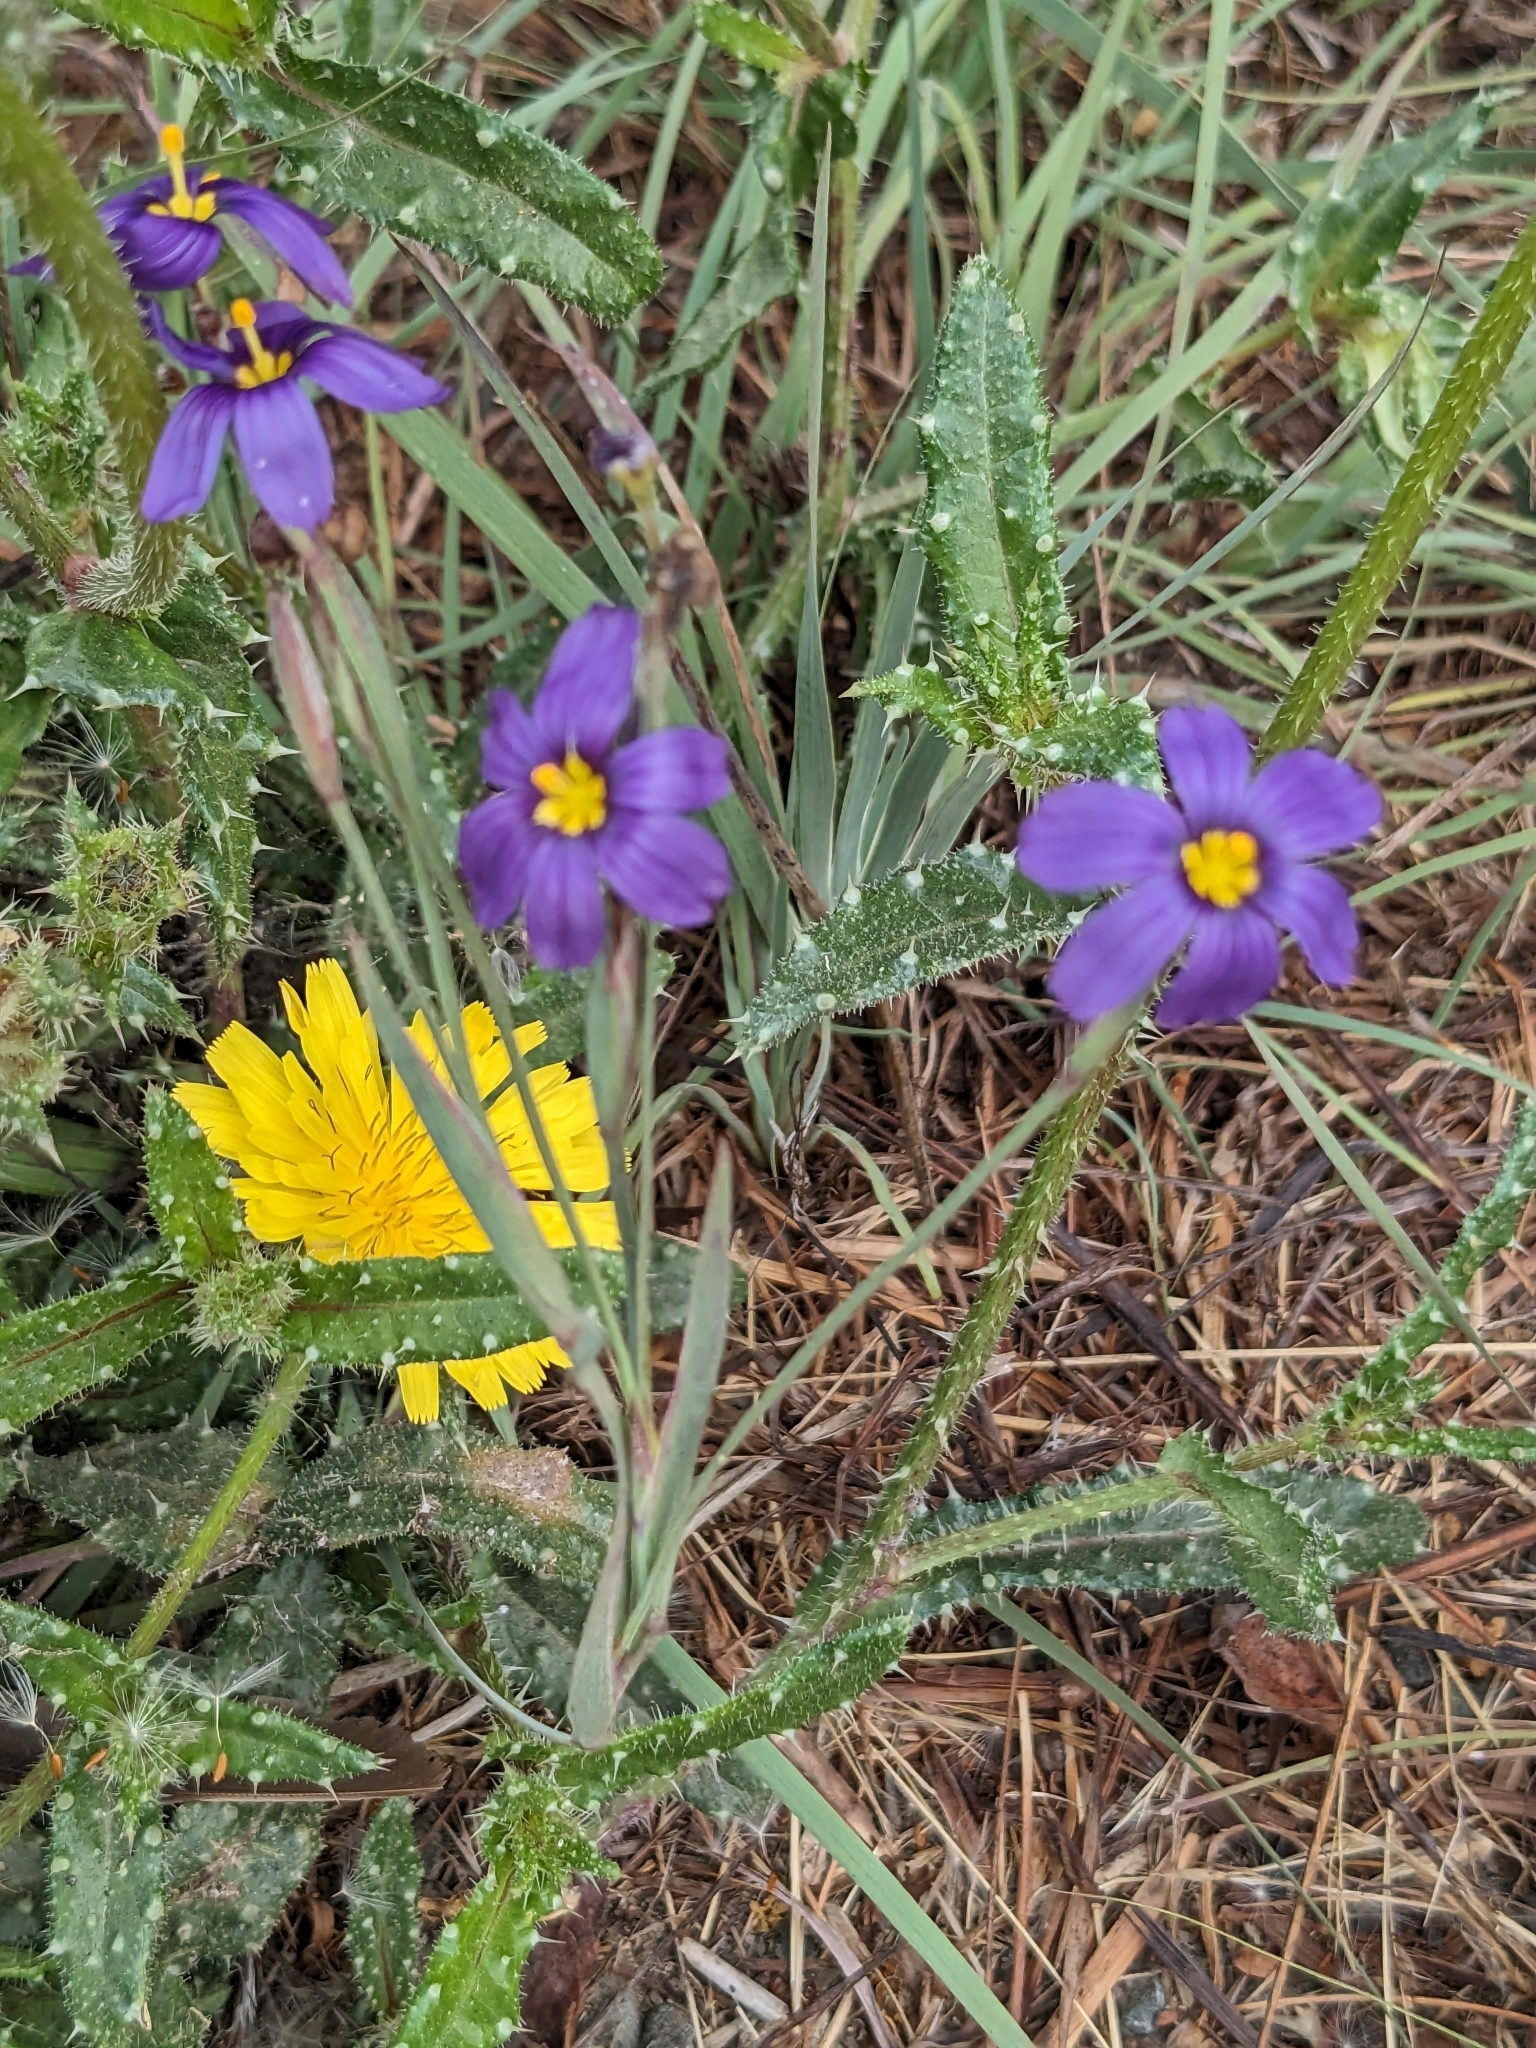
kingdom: Plantae
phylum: Tracheophyta
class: Liliopsida
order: Asparagales
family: Iridaceae
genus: Sisyrinchium
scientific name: Sisyrinchium bellum
